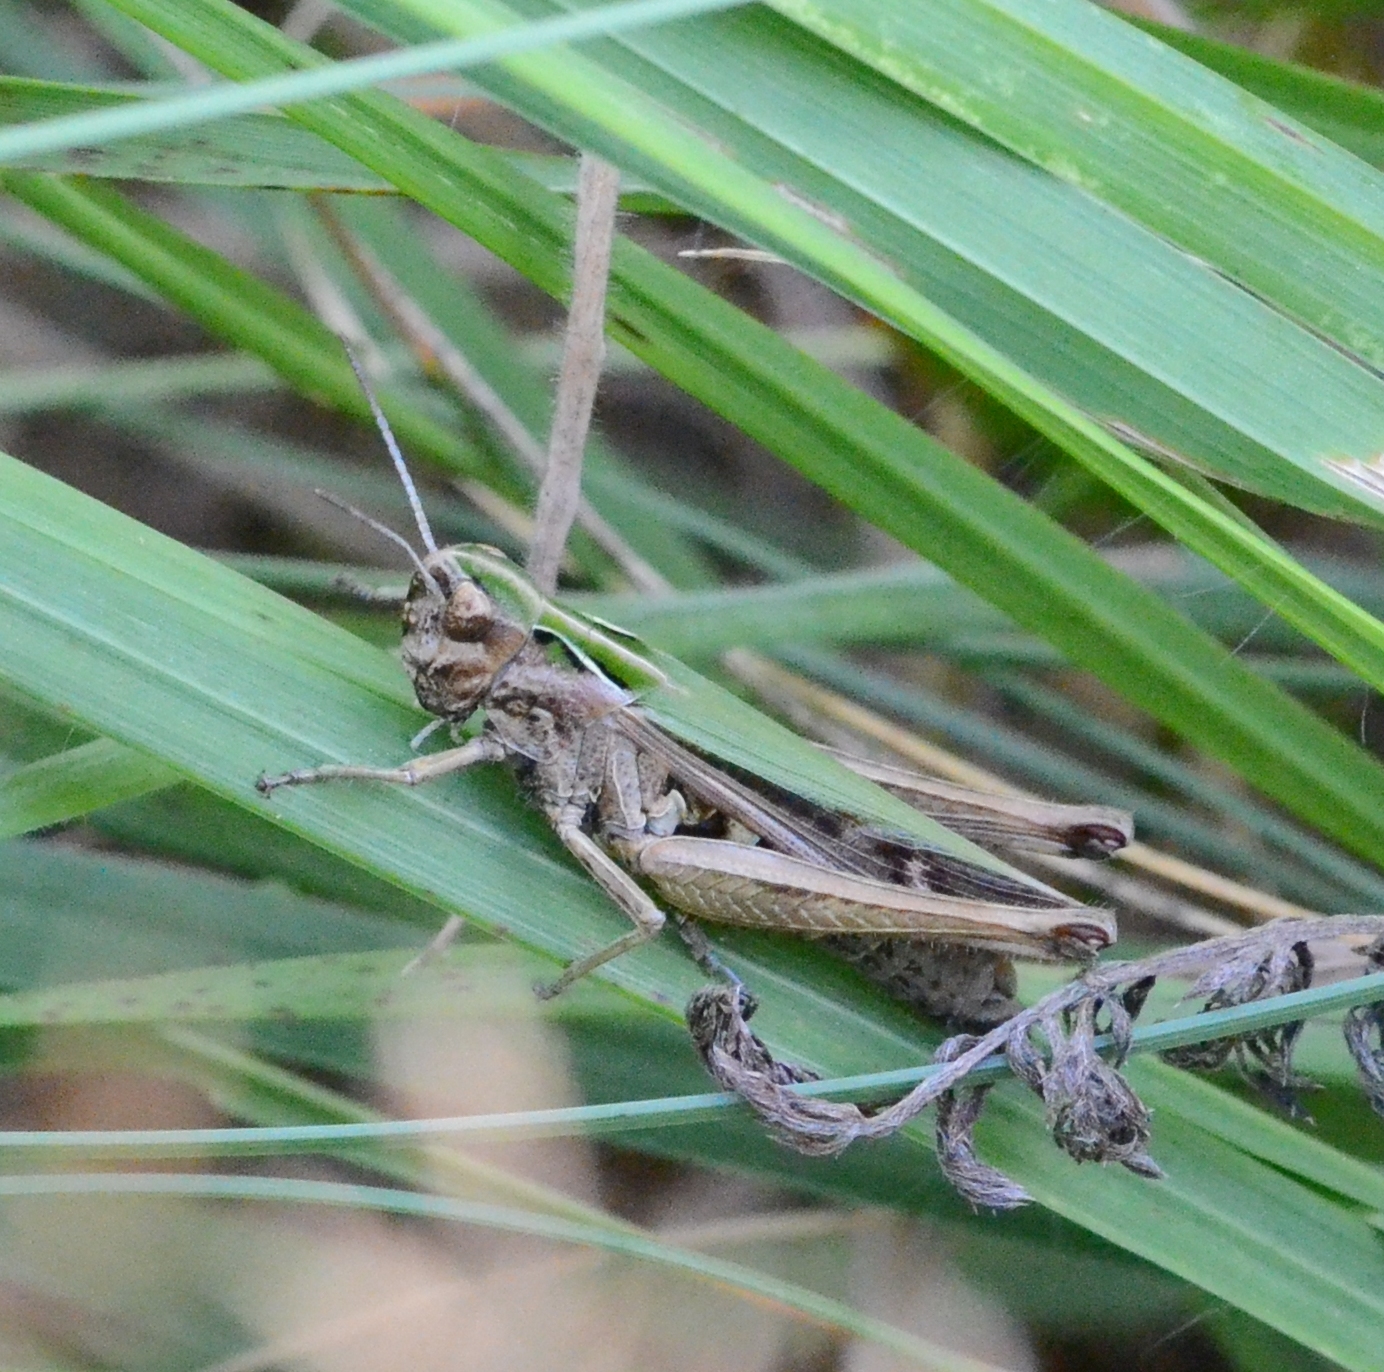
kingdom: Animalia
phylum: Arthropoda
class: Insecta
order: Orthoptera
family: Acrididae
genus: Omocestus
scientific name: Omocestus viridulus
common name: Common green grasshopper
